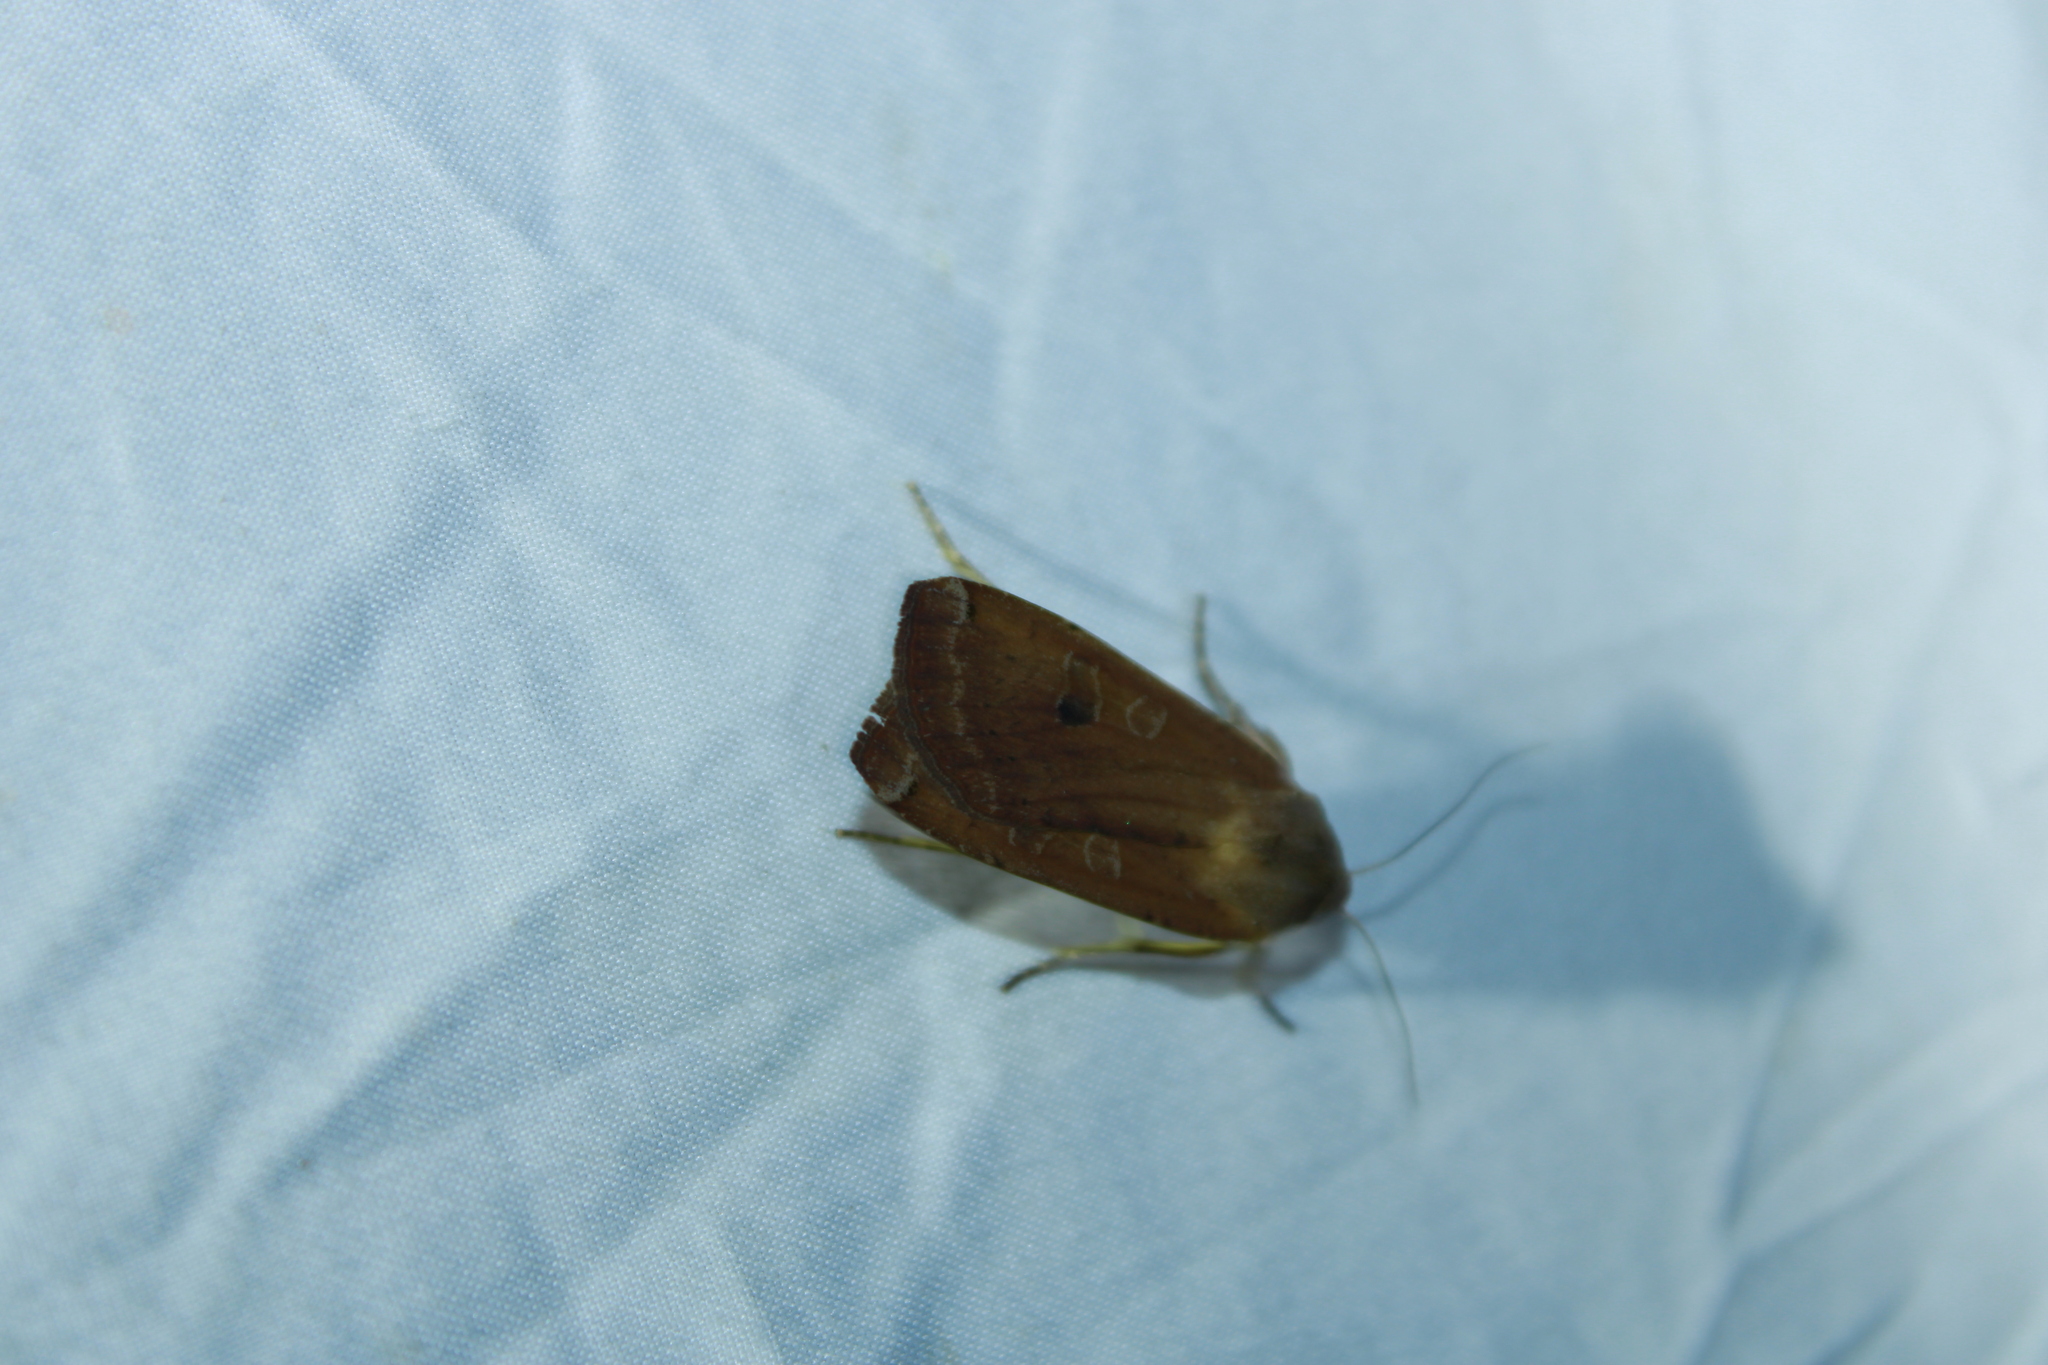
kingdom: Animalia
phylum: Arthropoda
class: Insecta
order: Lepidoptera
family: Noctuidae
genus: Noctua
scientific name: Noctua pronuba
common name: Large yellow underwing
